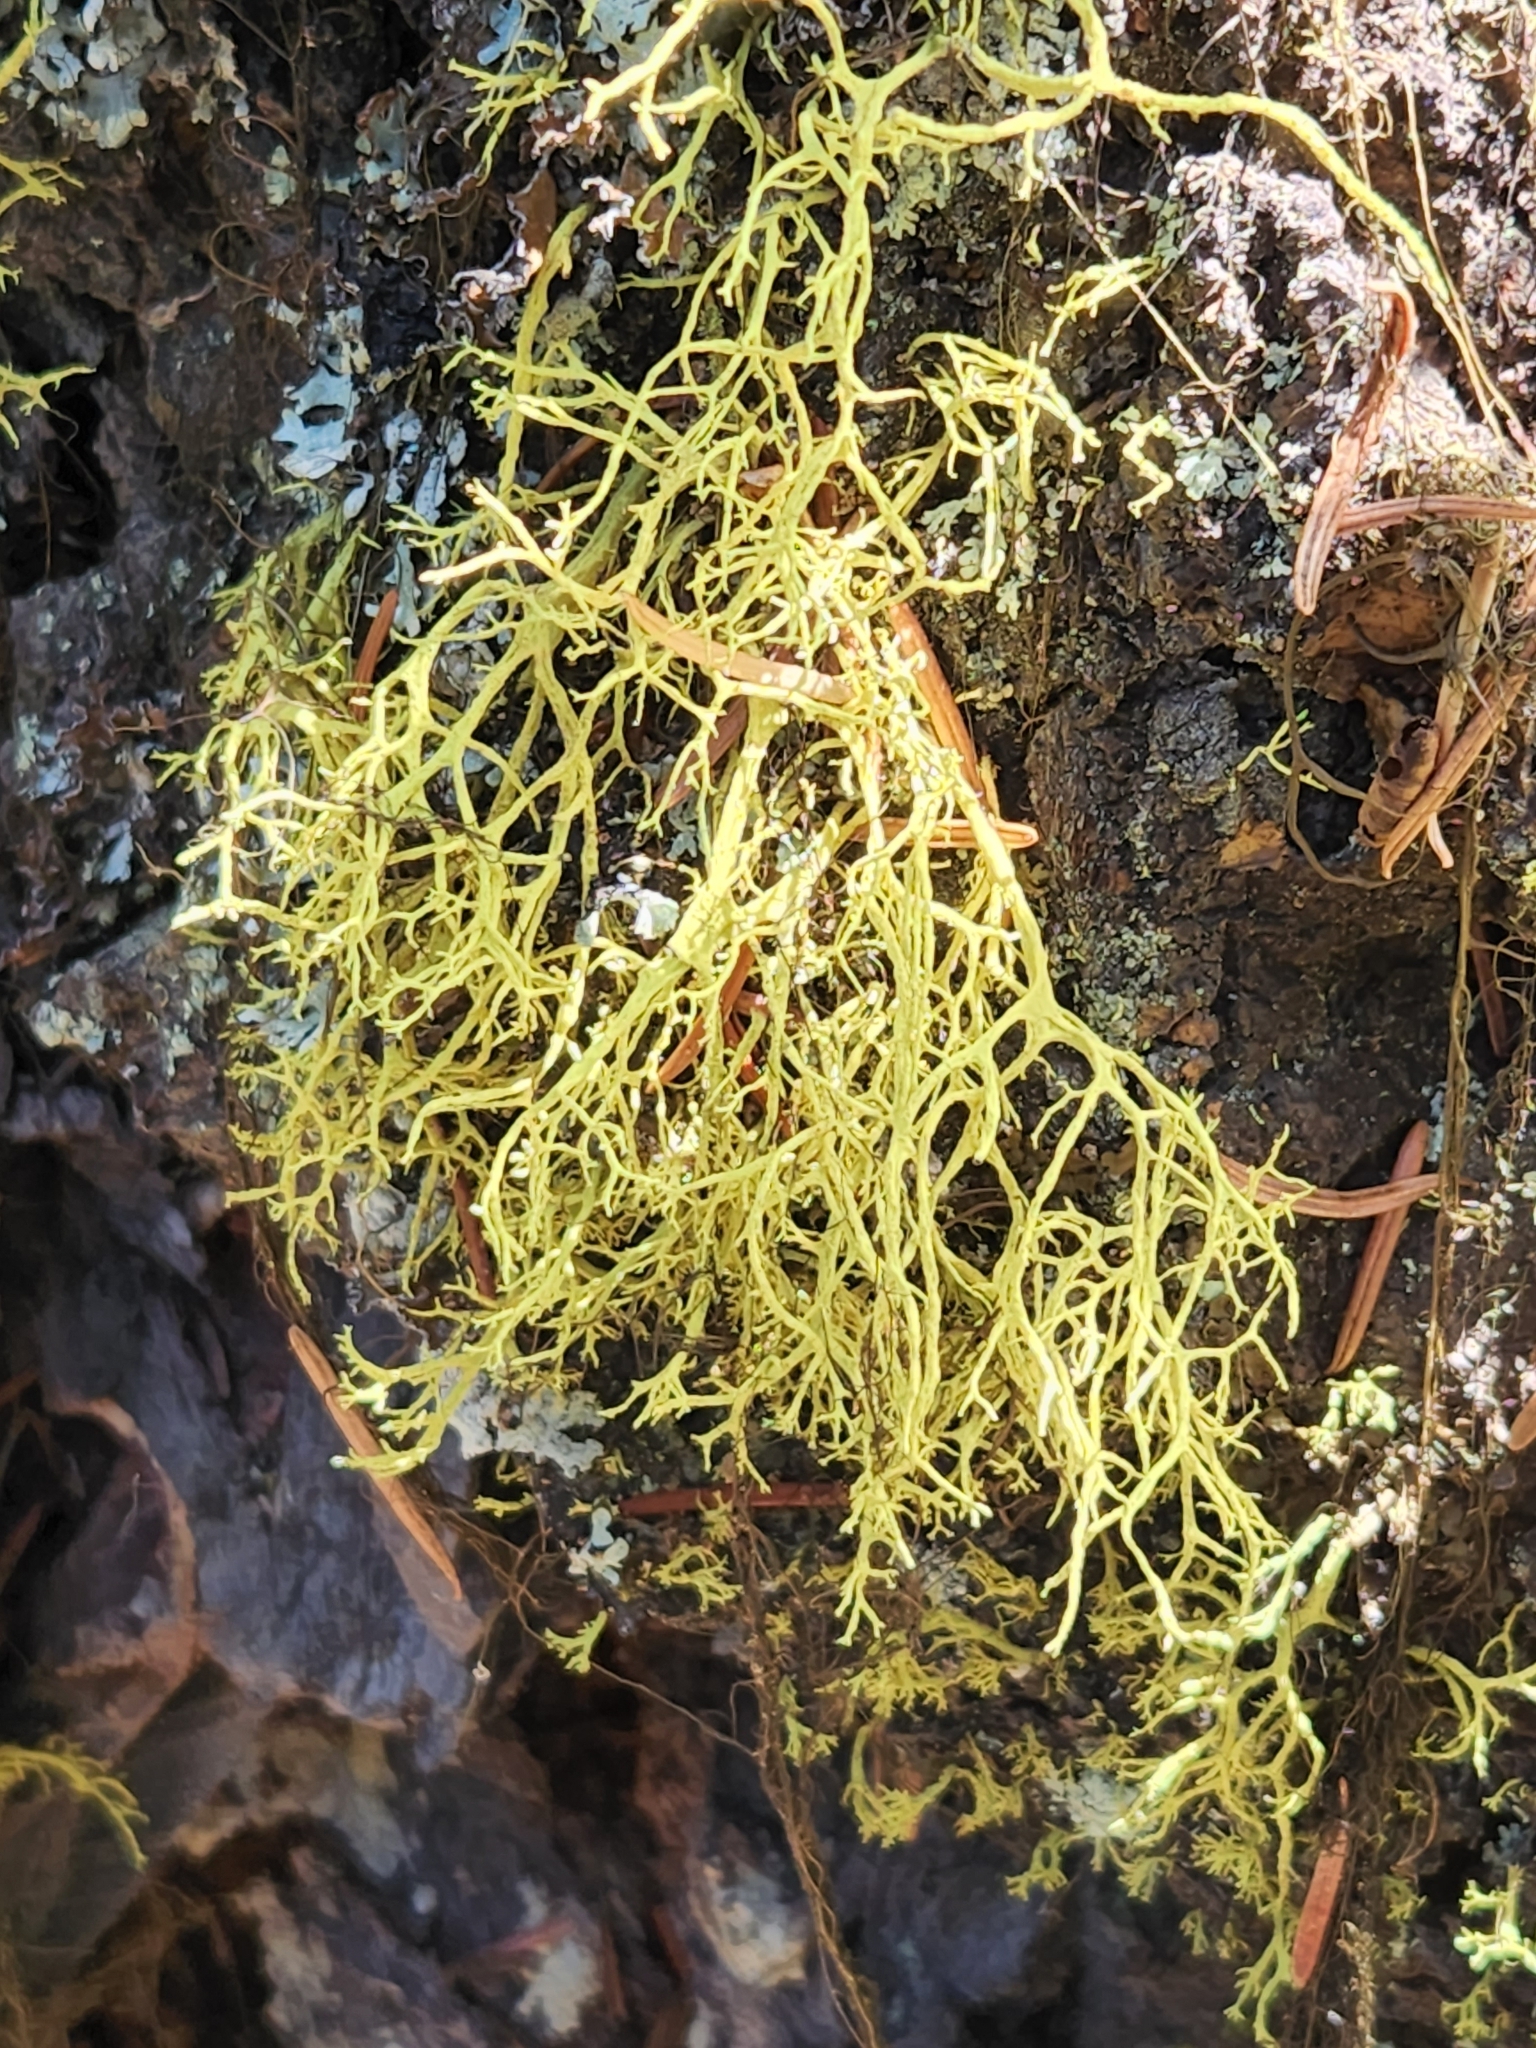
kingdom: Fungi
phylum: Ascomycota
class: Lecanoromycetes
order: Lecanorales
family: Parmeliaceae
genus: Letharia
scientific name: Letharia lupina
